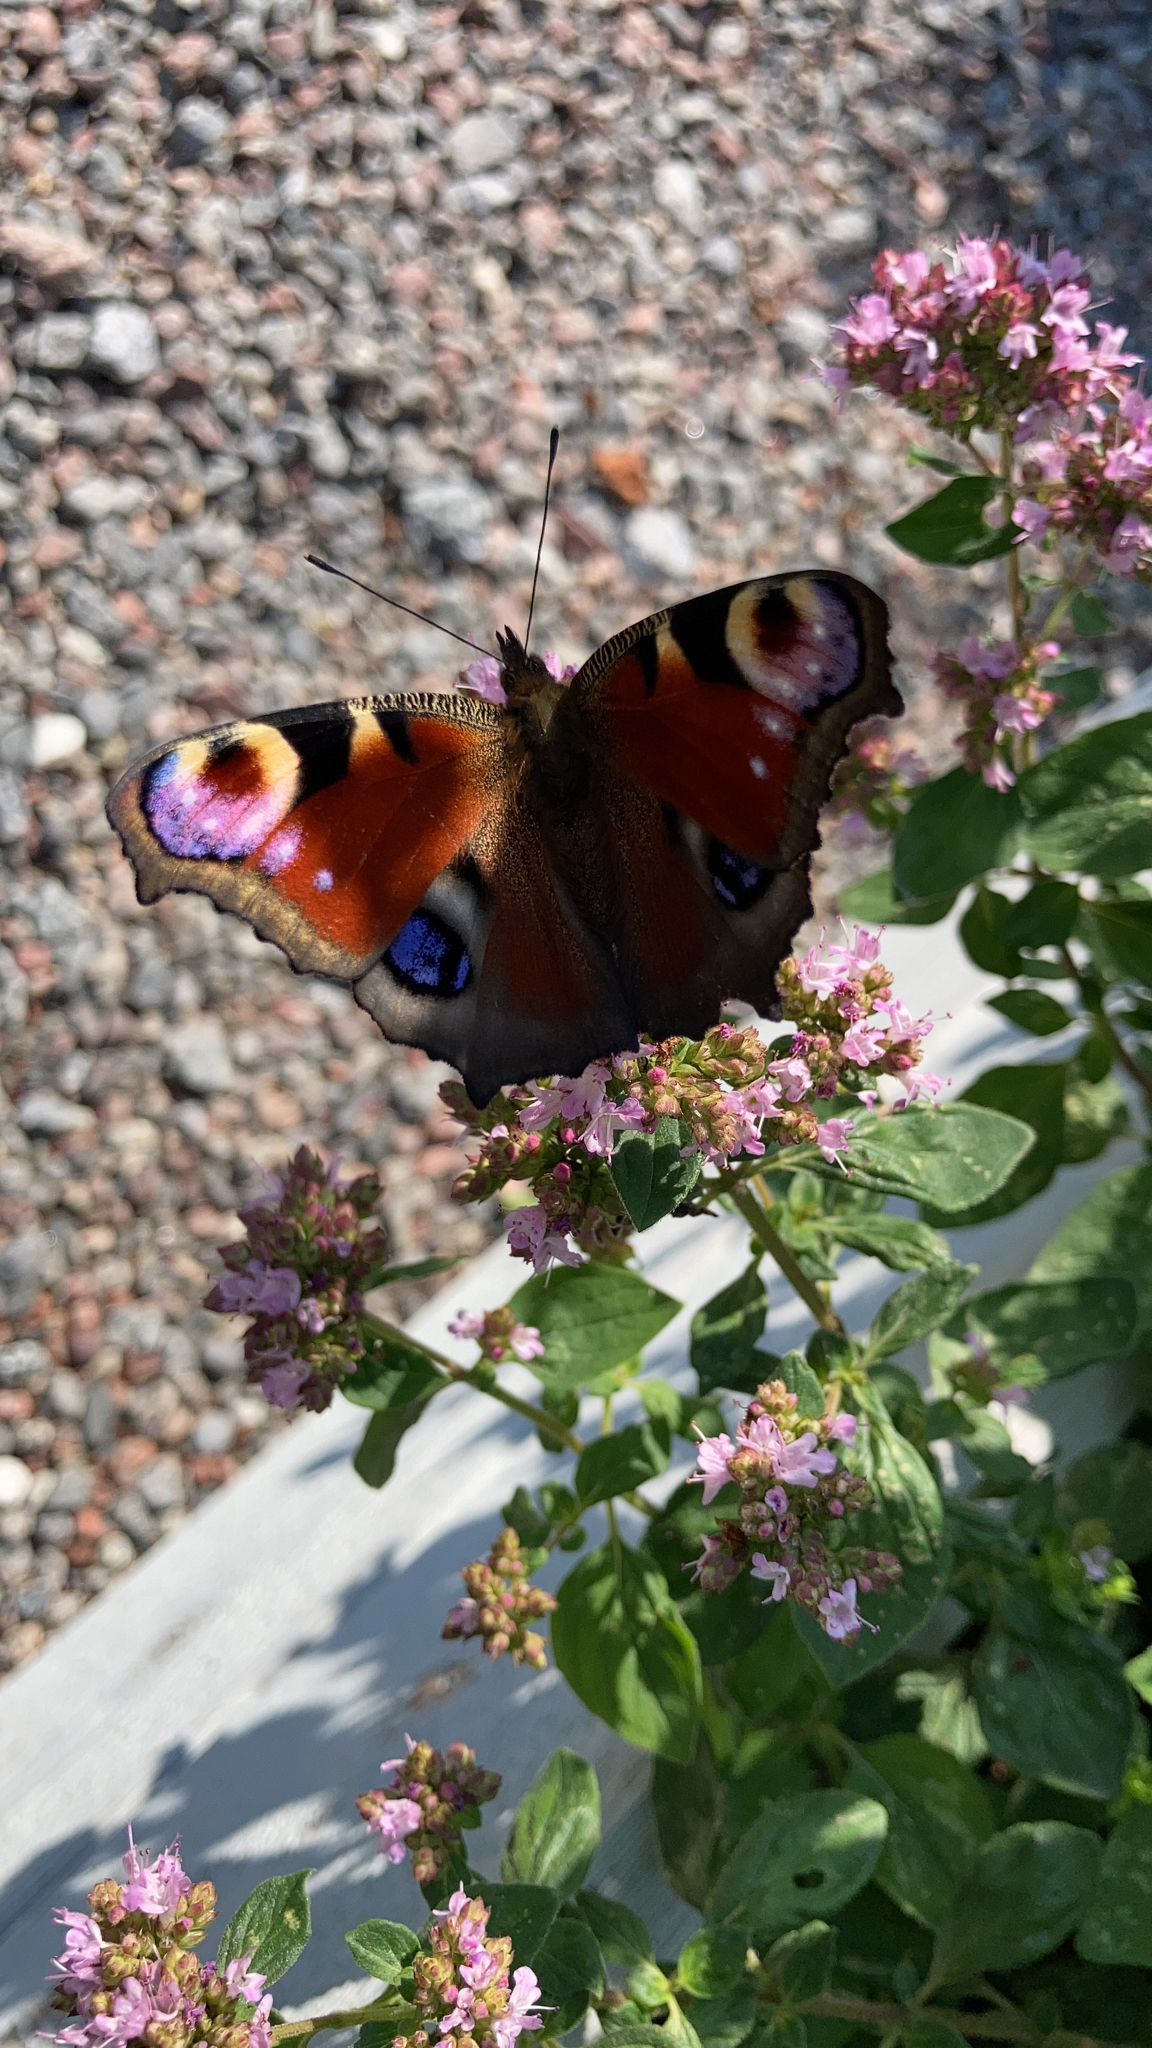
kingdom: Animalia
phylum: Arthropoda
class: Insecta
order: Lepidoptera
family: Nymphalidae
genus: Aglais
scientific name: Aglais io
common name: Peacock
